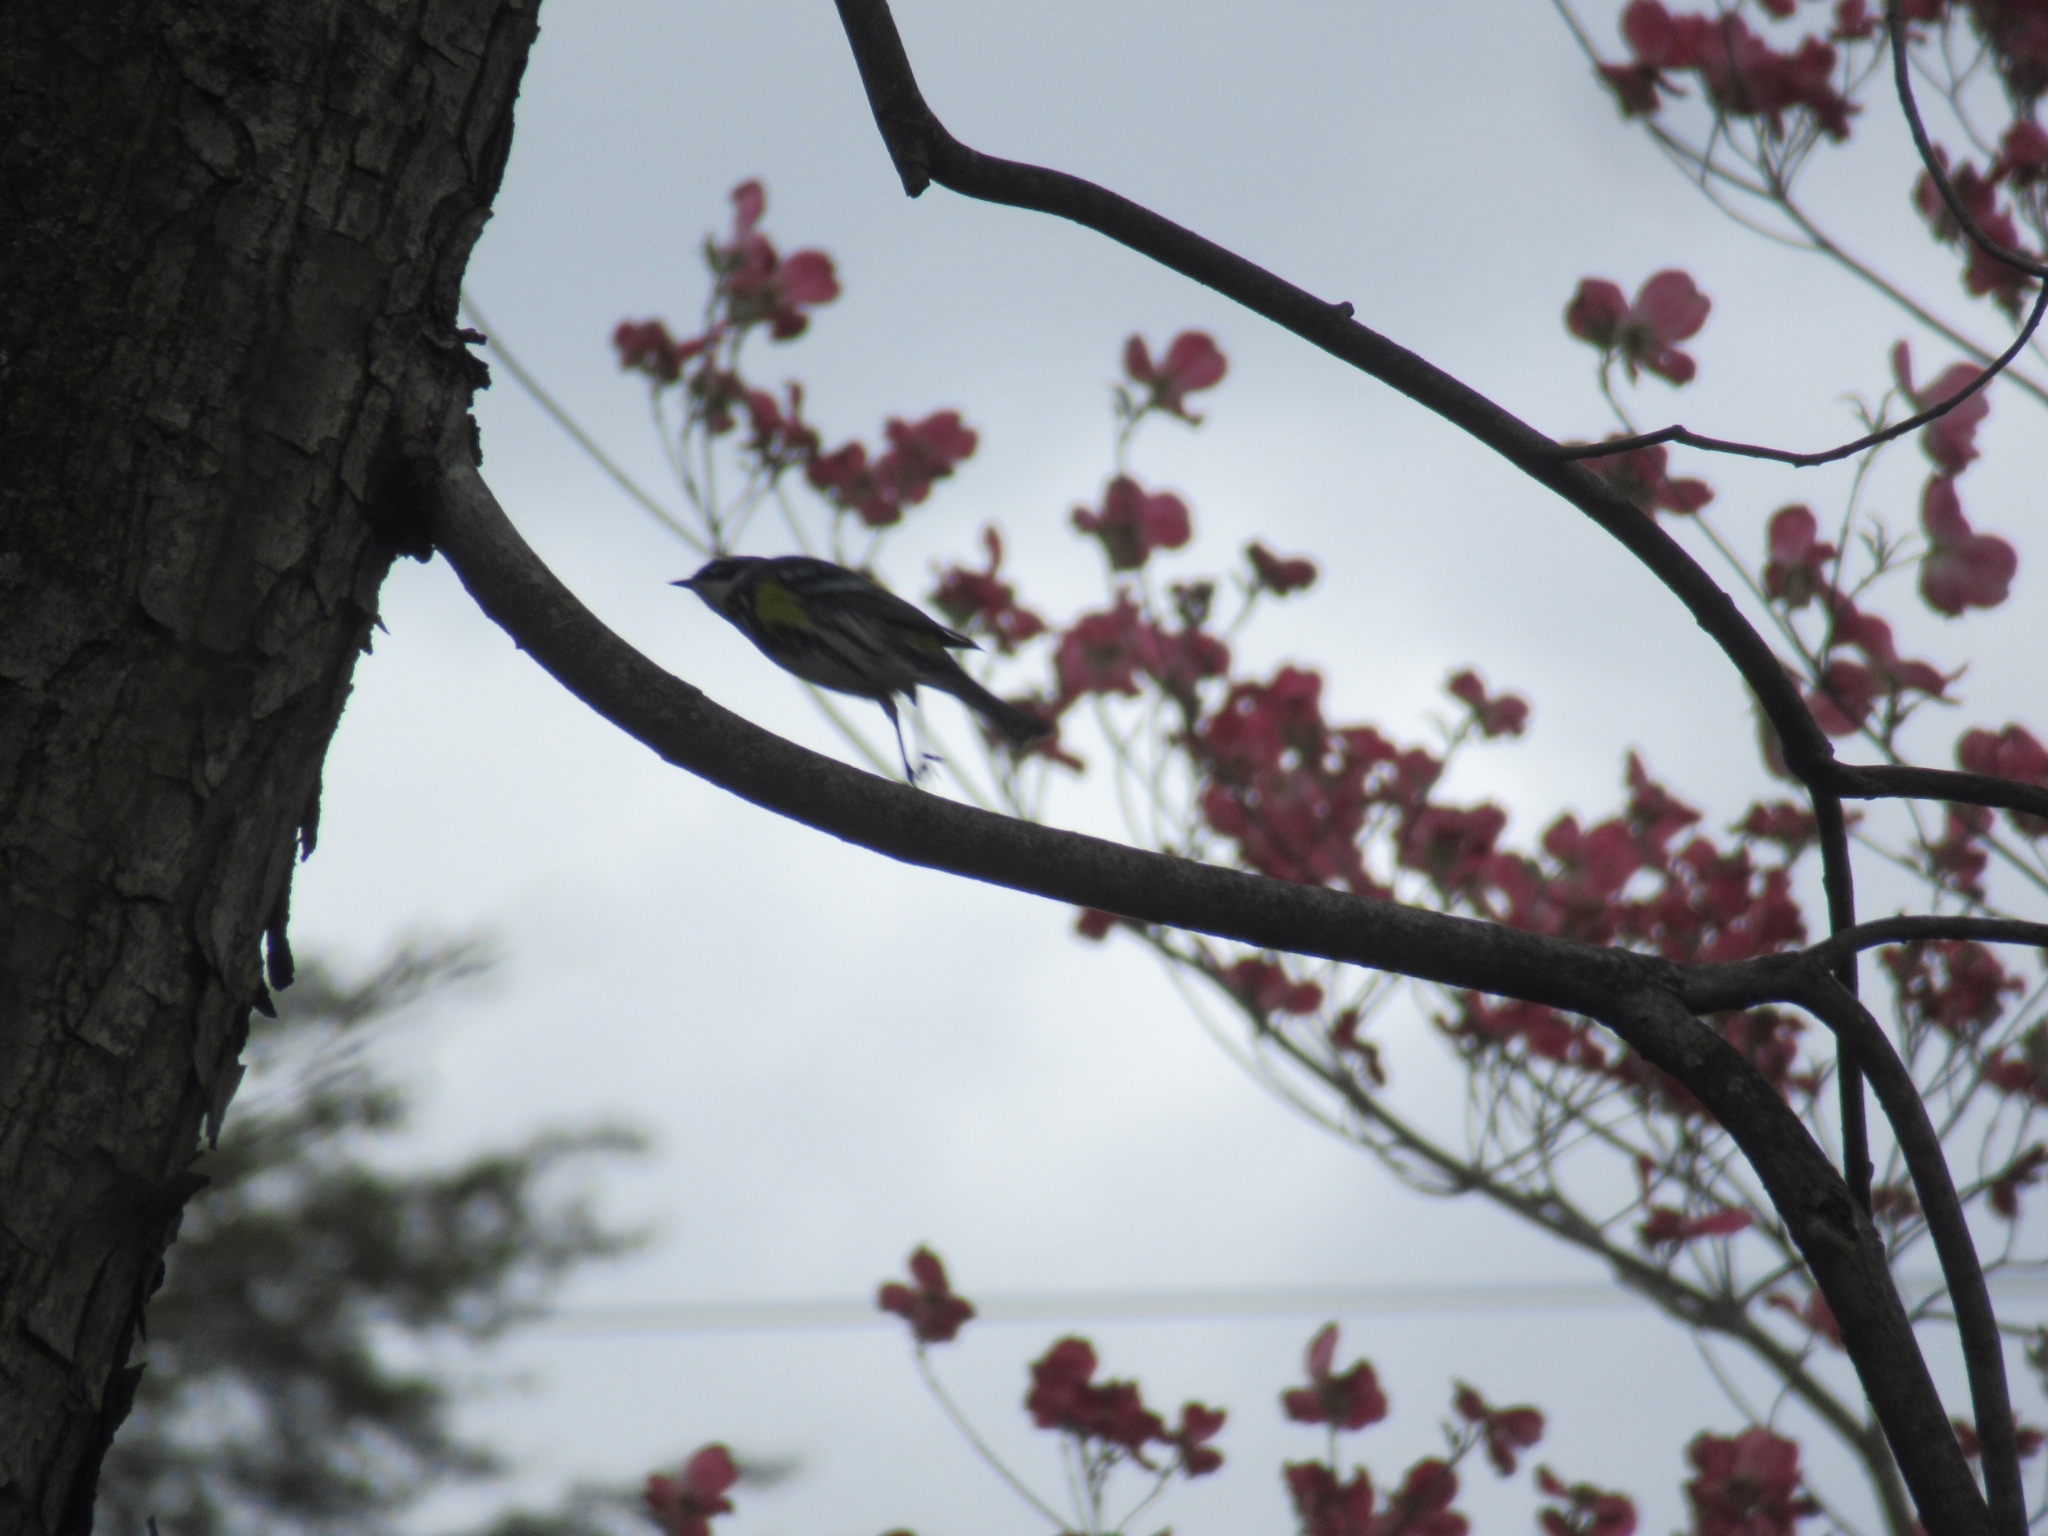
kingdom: Animalia
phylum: Chordata
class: Aves
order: Passeriformes
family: Parulidae
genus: Setophaga
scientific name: Setophaga coronata
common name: Myrtle warbler
